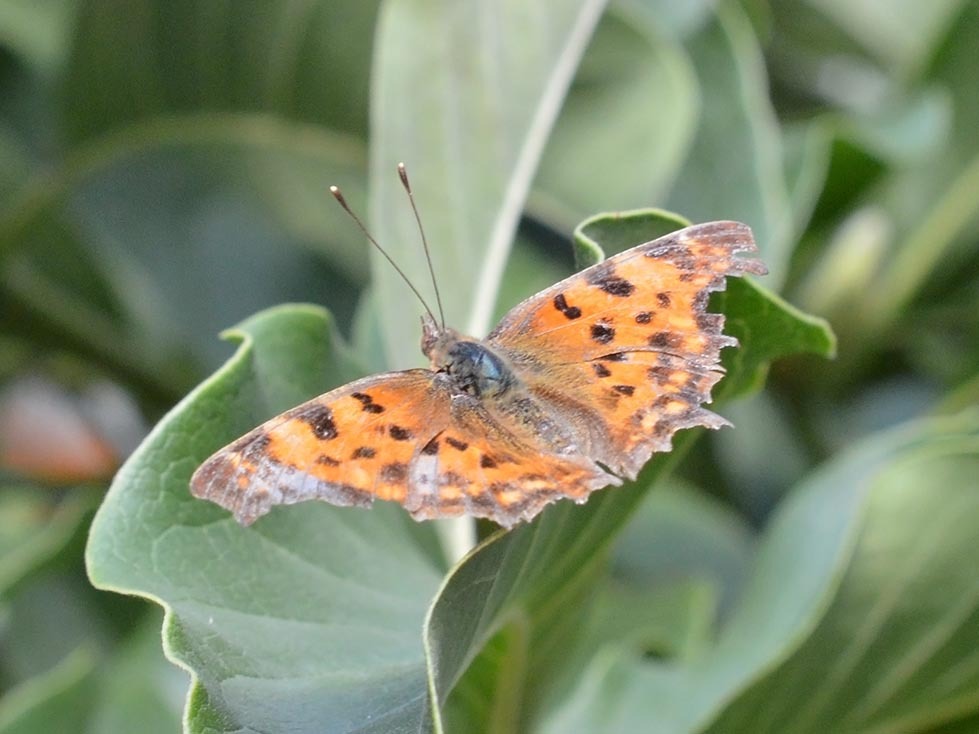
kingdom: Animalia
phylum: Arthropoda
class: Insecta
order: Lepidoptera
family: Nymphalidae
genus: Polygonia
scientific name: Polygonia c-album
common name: Comma
